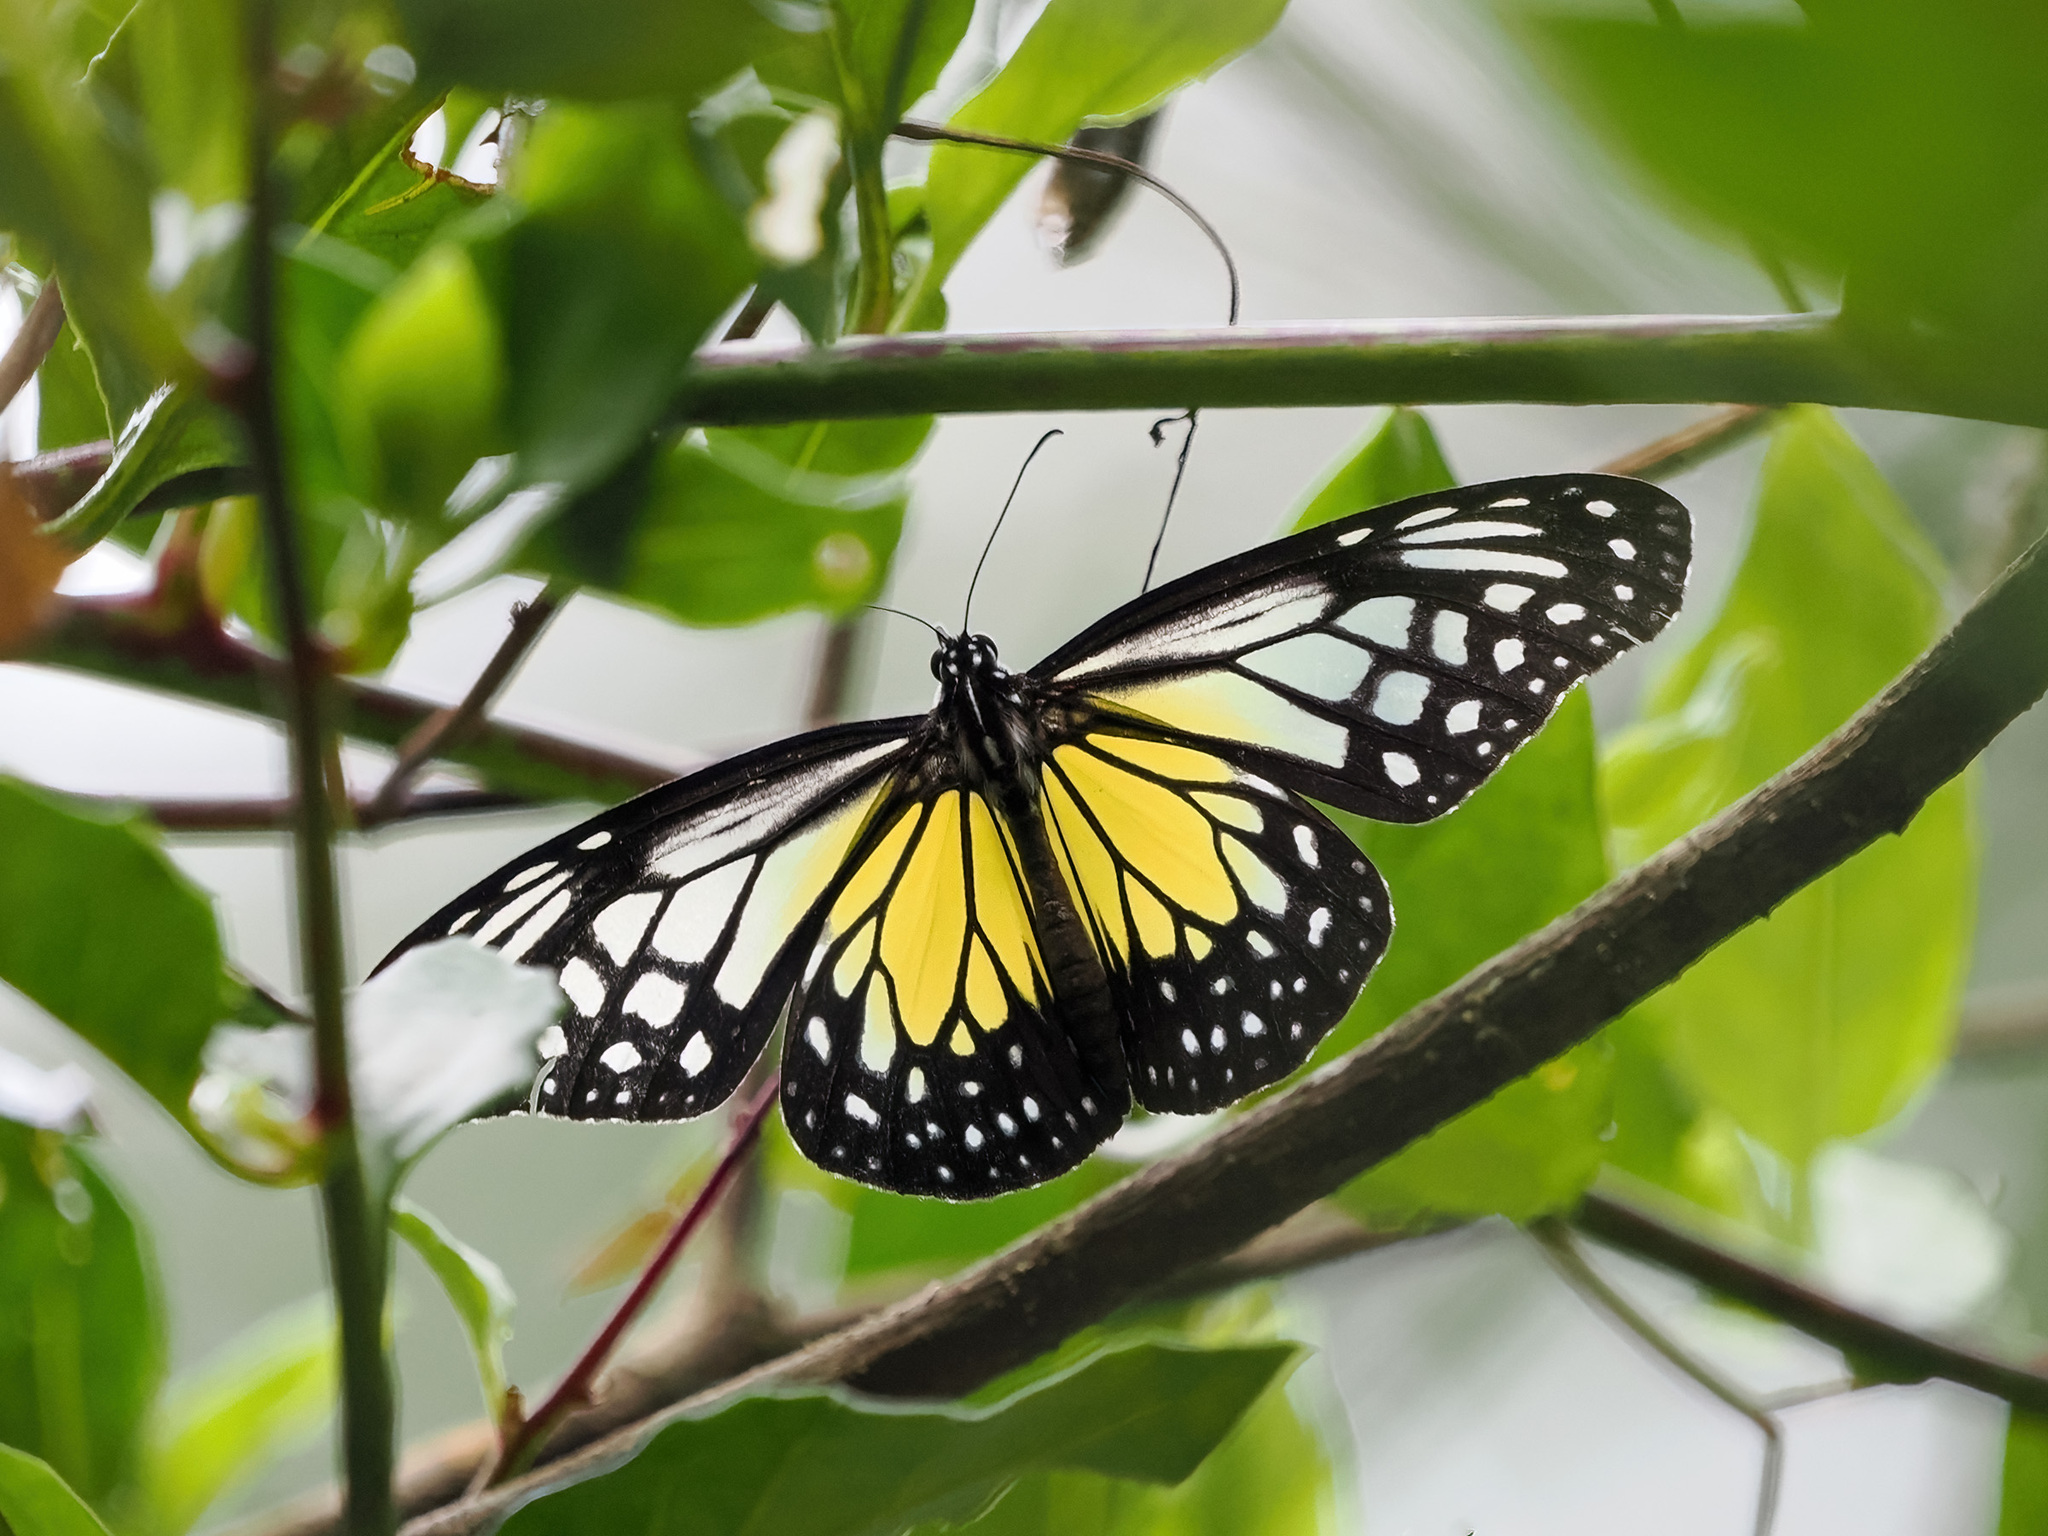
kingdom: Animalia
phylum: Arthropoda
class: Insecta
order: Lepidoptera
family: Nymphalidae
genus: Parantica
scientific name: Parantica aspasia
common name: Yellow glassy tiger
